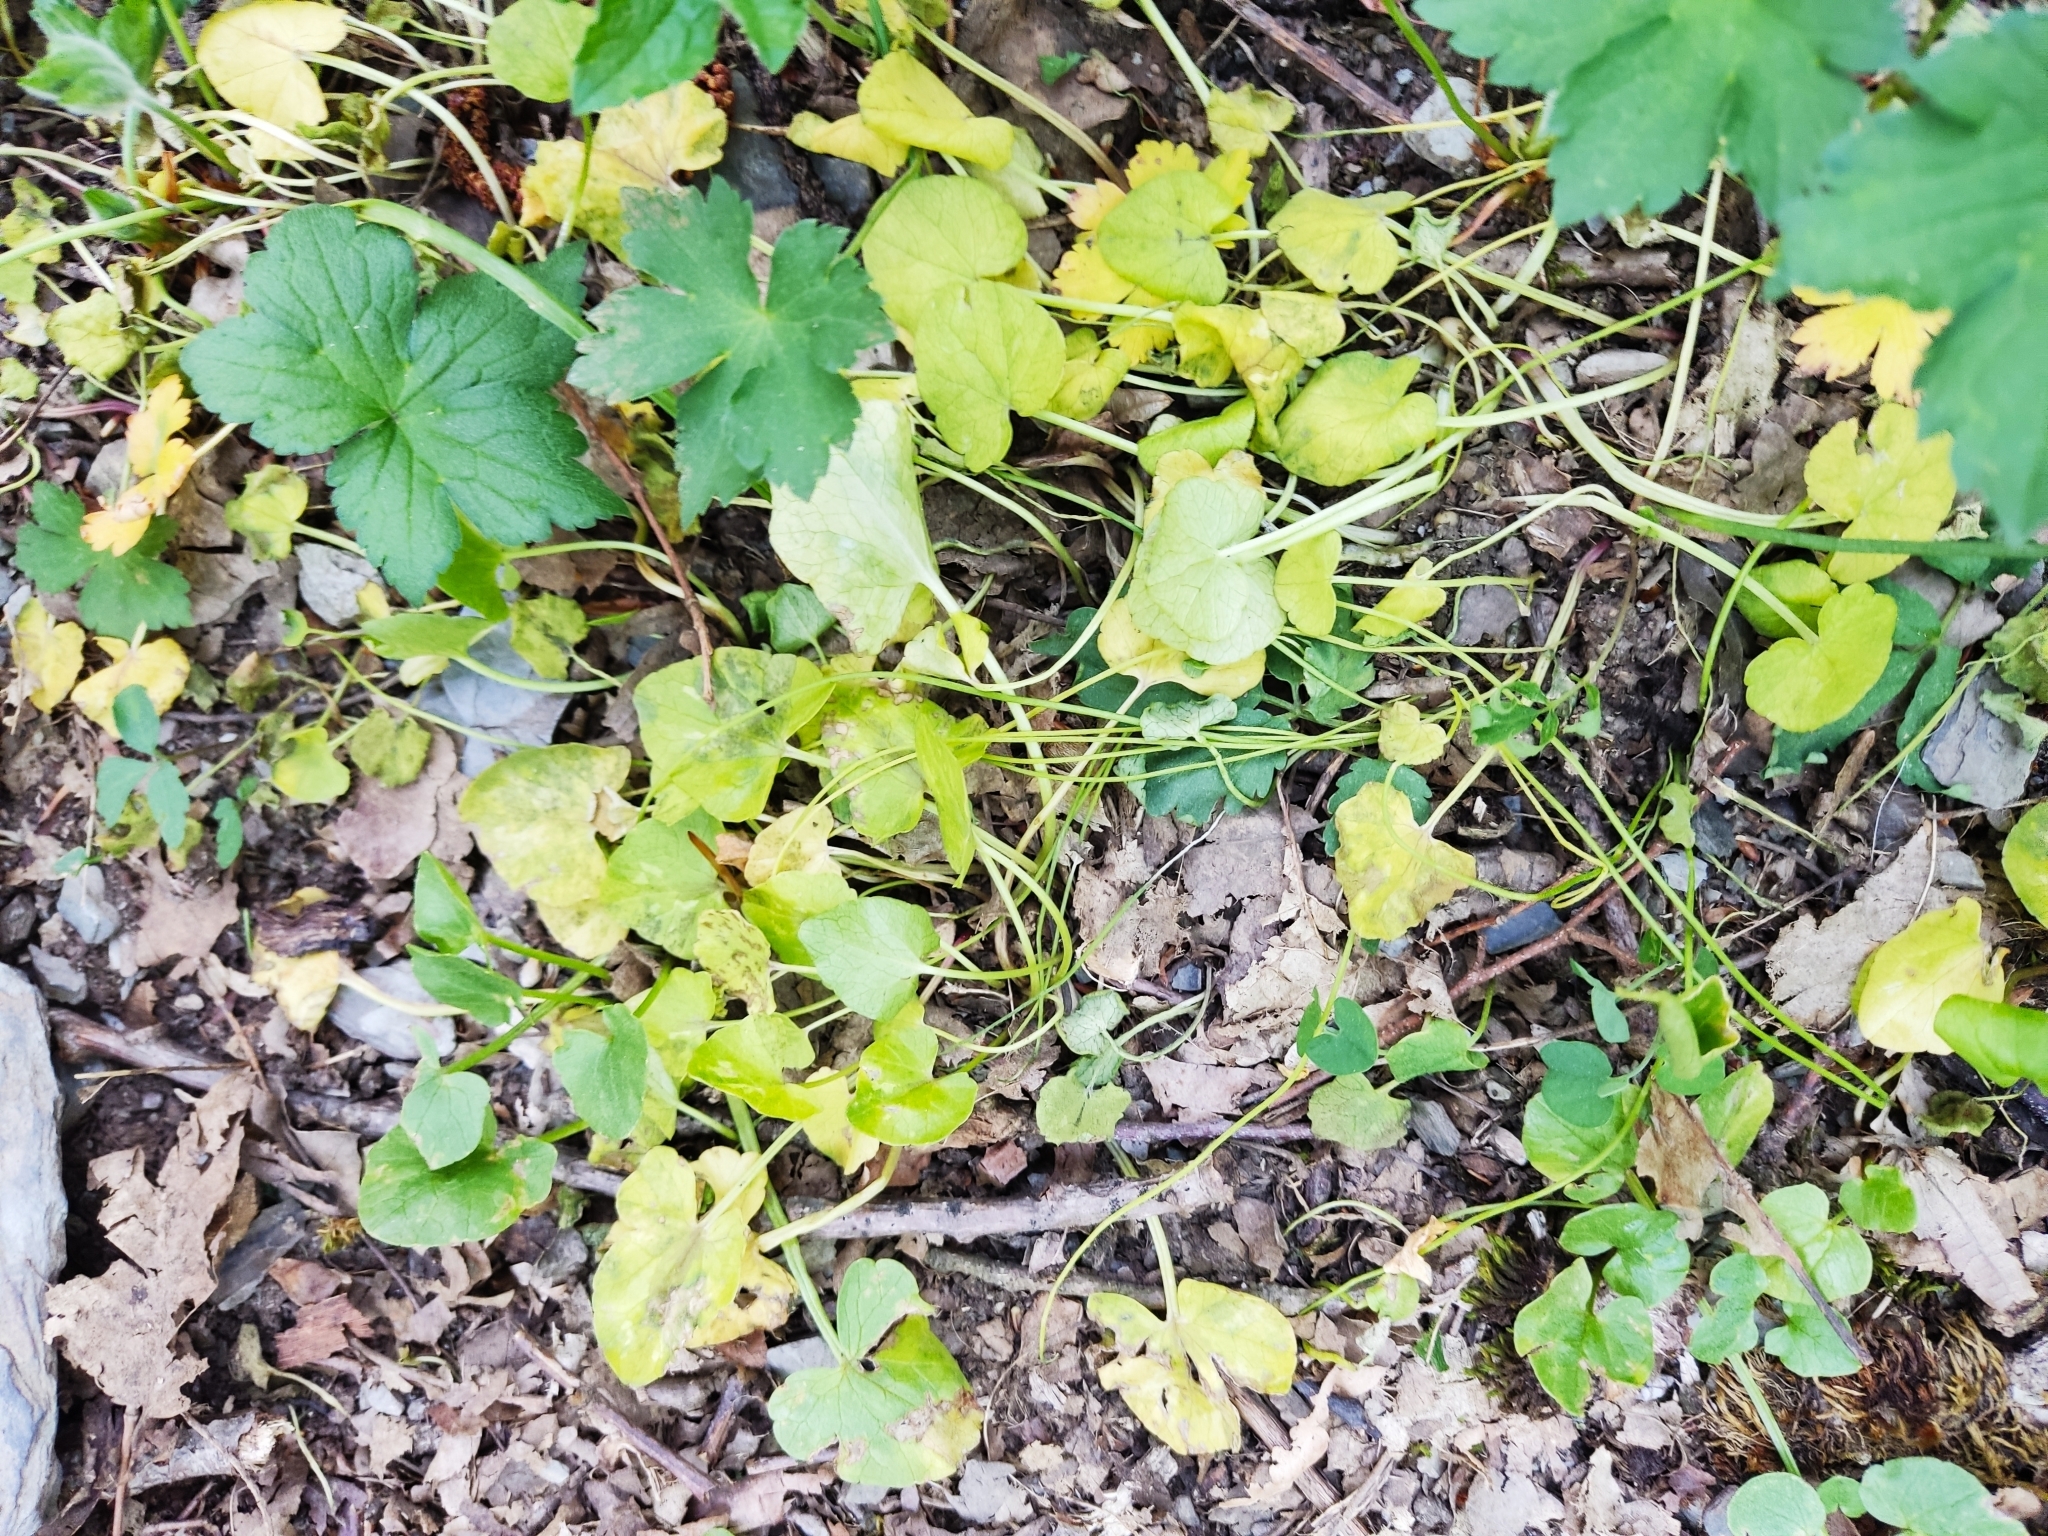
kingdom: Plantae
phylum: Tracheophyta
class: Magnoliopsida
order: Ranunculales
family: Ranunculaceae
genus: Ficaria
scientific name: Ficaria verna
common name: Lesser celandine
